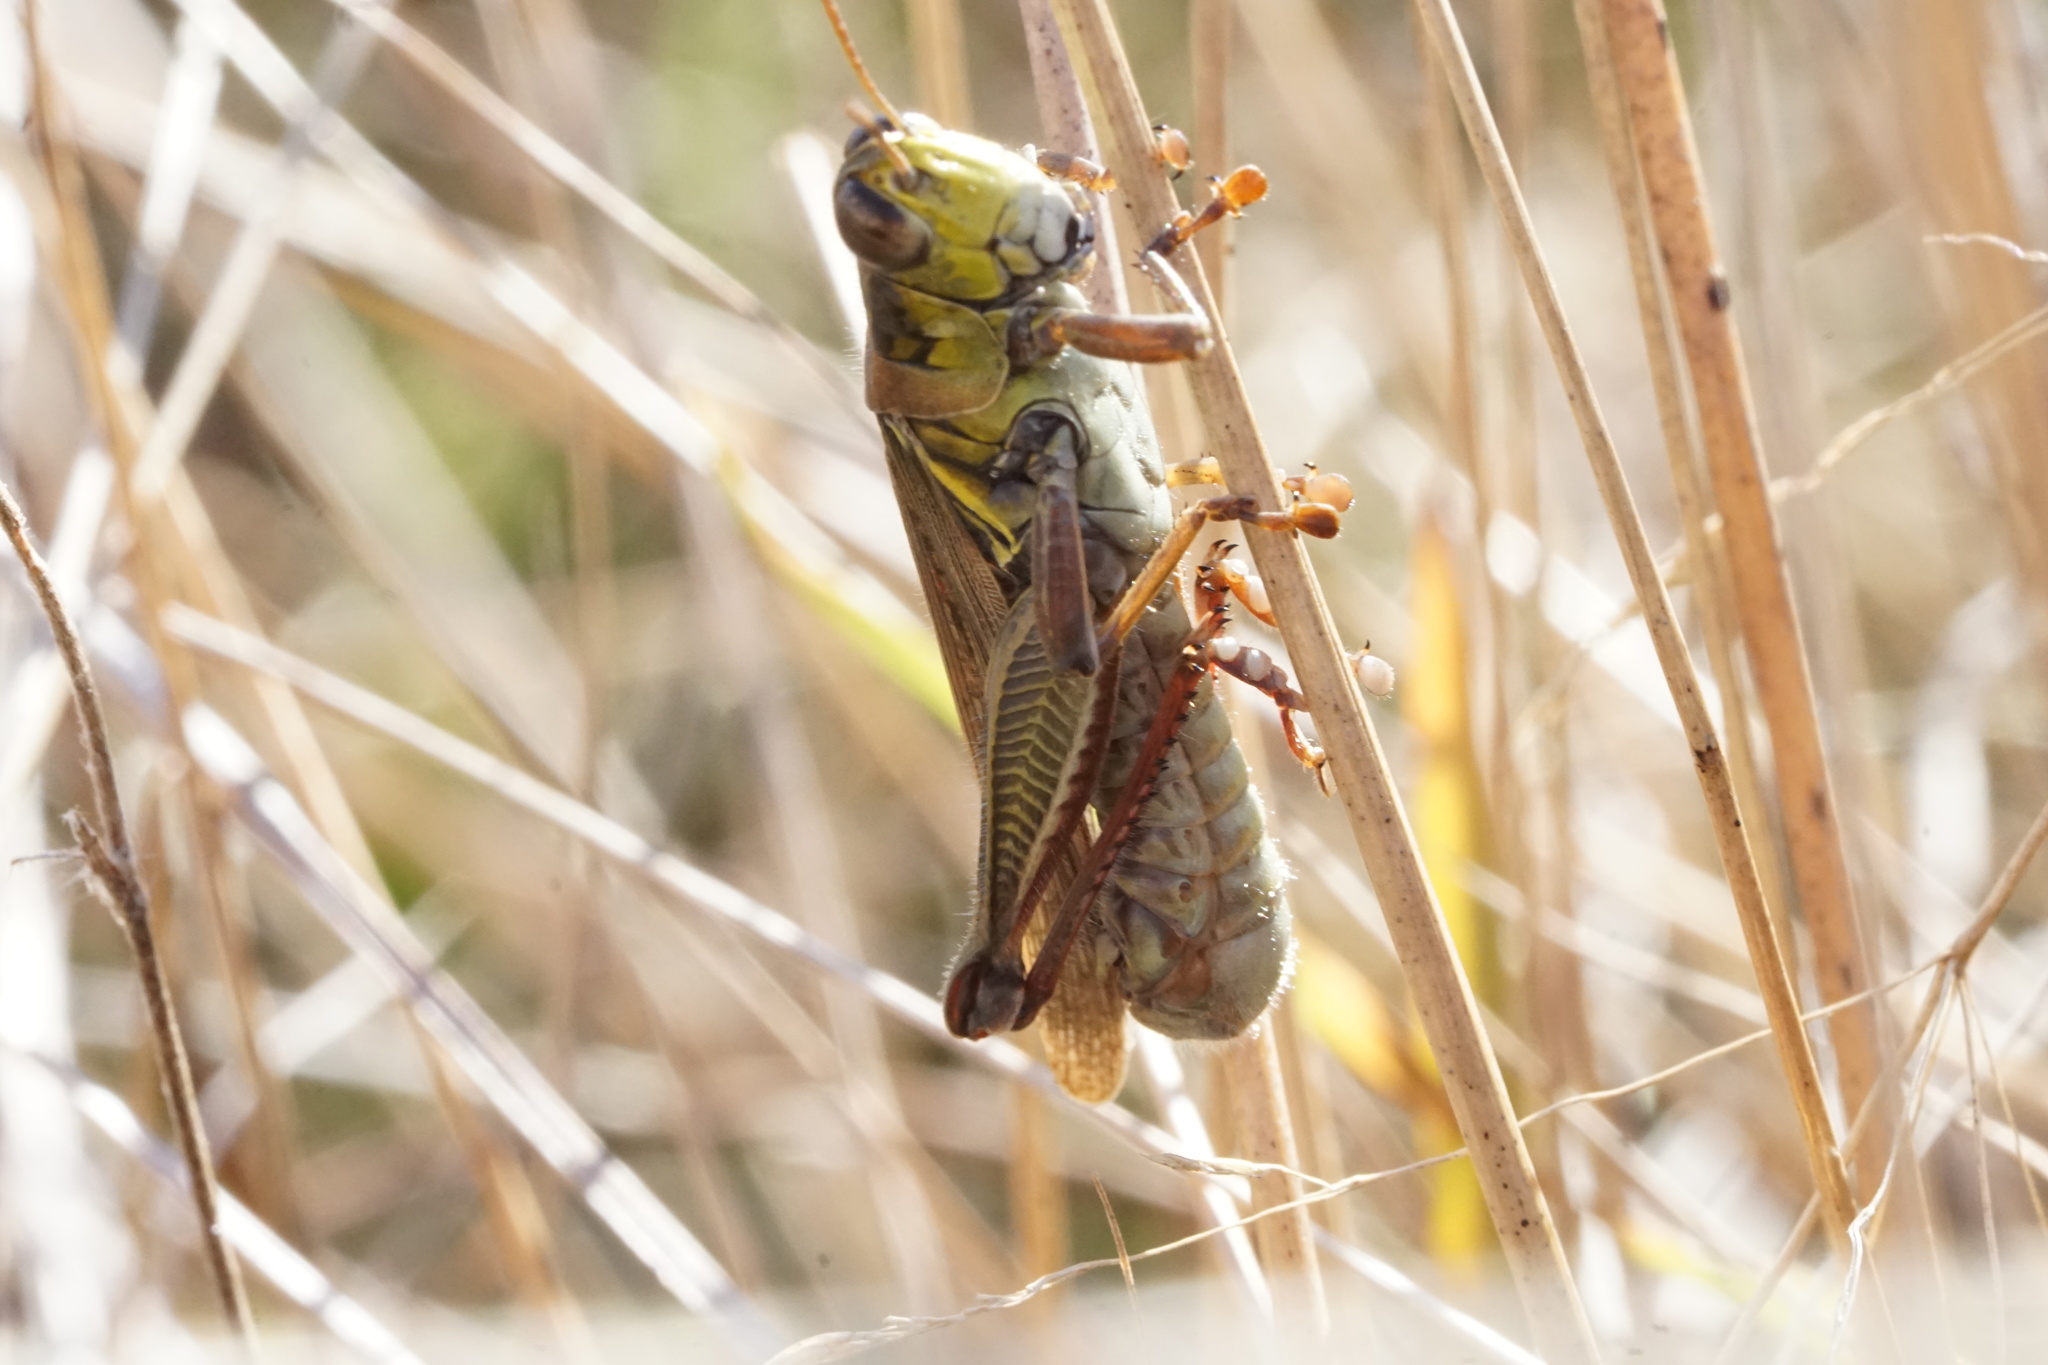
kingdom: Animalia
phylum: Arthropoda
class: Insecta
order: Orthoptera
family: Acrididae
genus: Melanoplus
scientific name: Melanoplus femurrubrum
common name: Red-legged grasshopper
